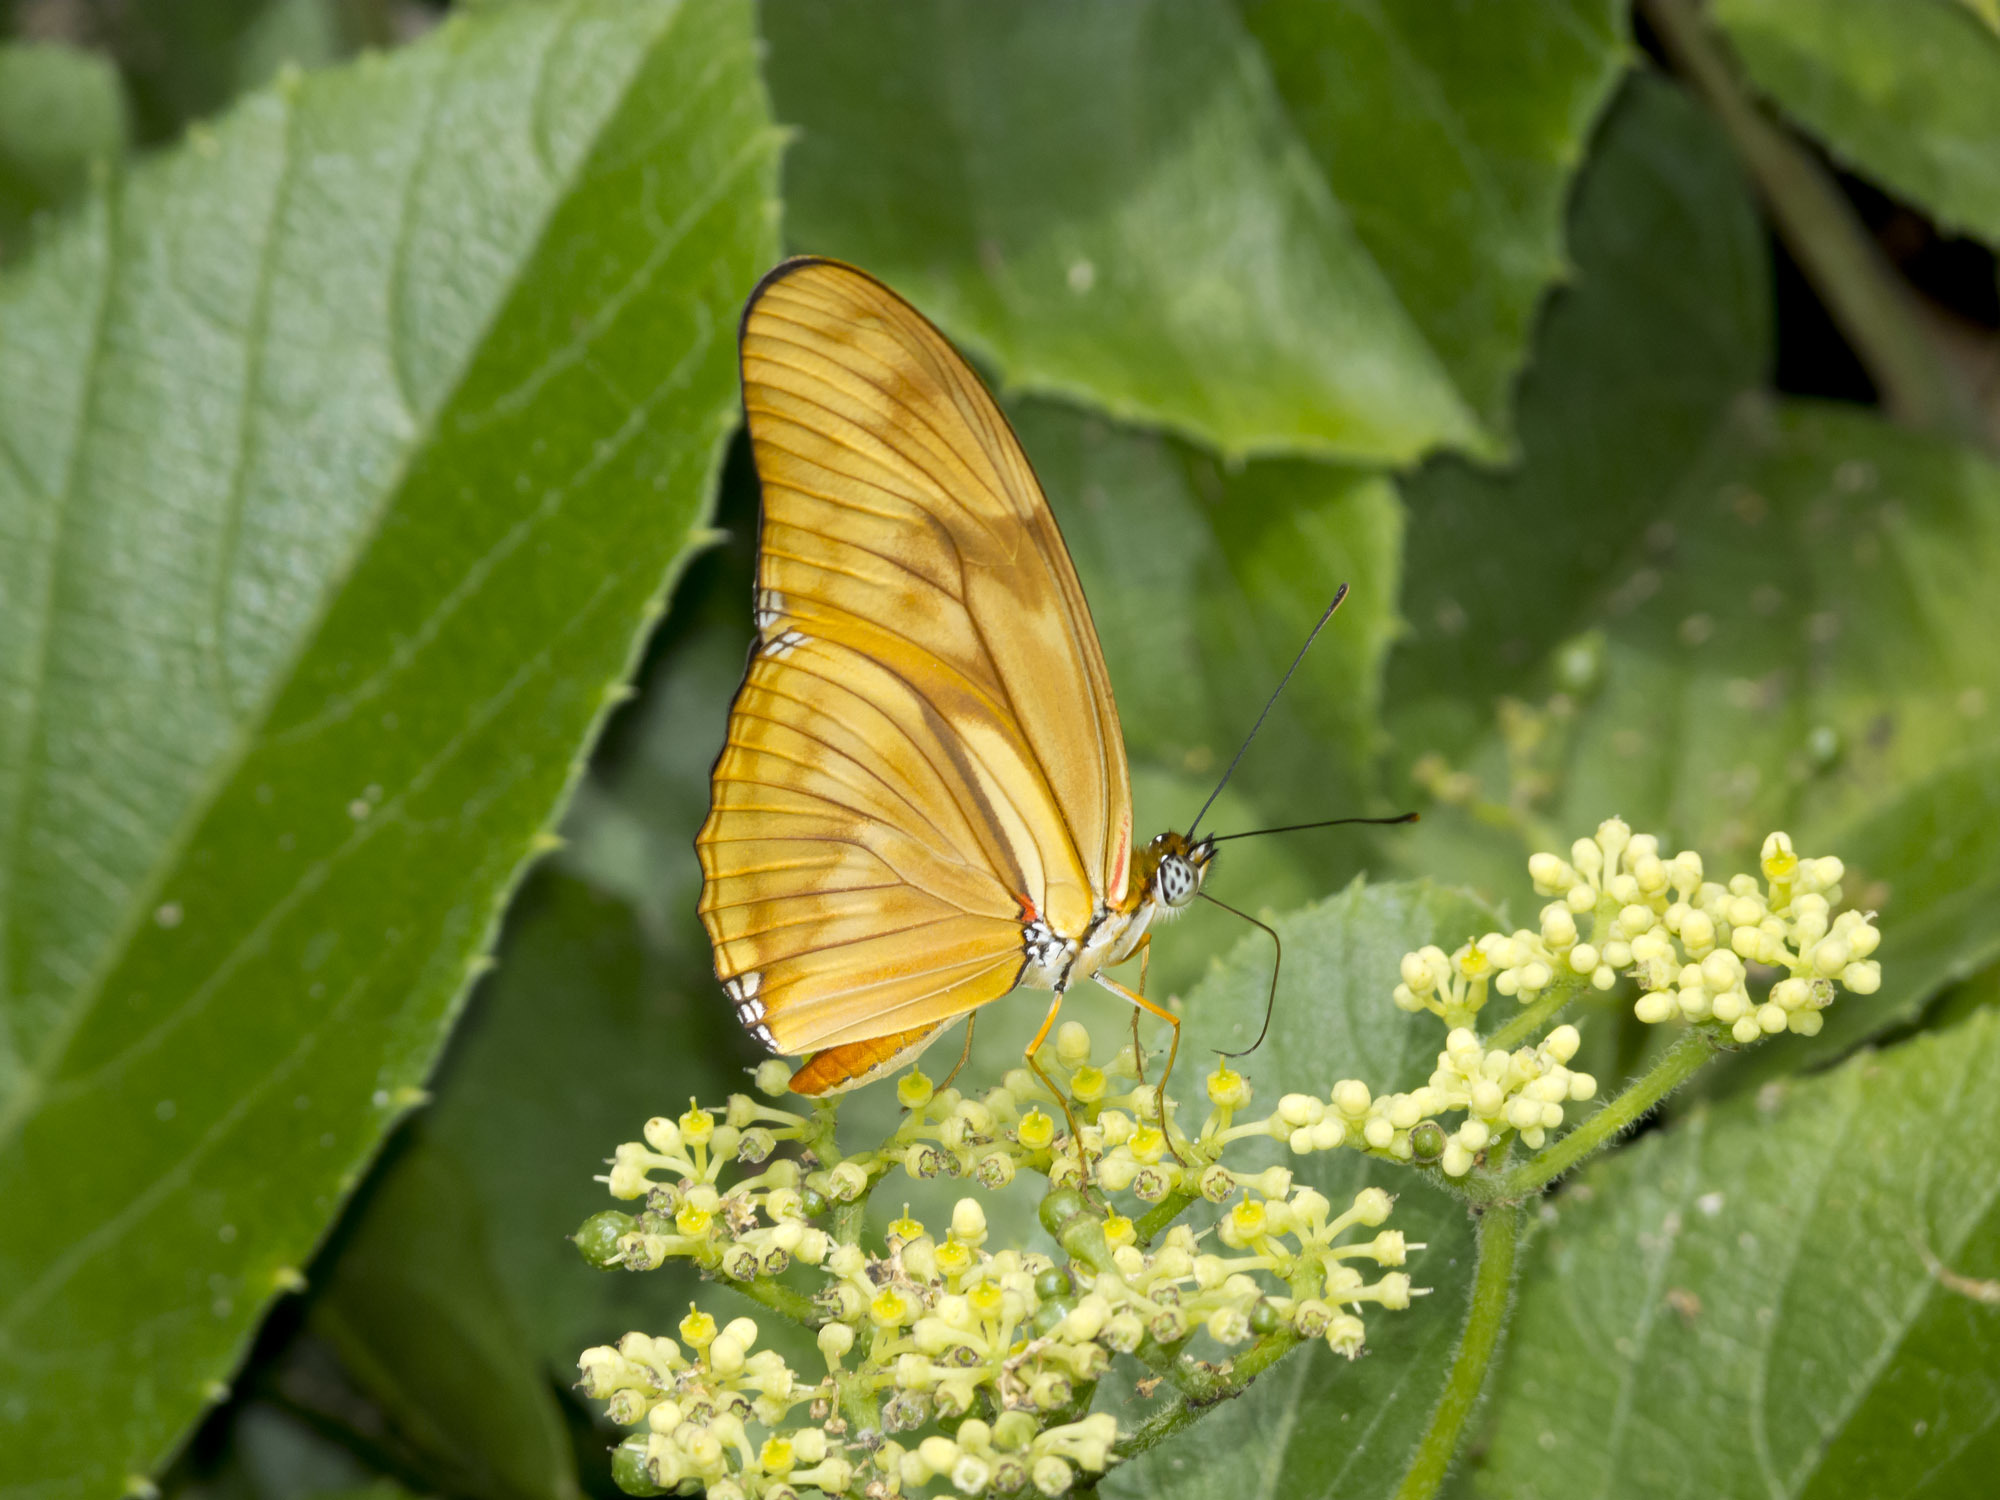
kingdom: Animalia
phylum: Arthropoda
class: Insecta
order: Lepidoptera
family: Nymphalidae
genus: Dryas
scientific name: Dryas iulia
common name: Flambeau
